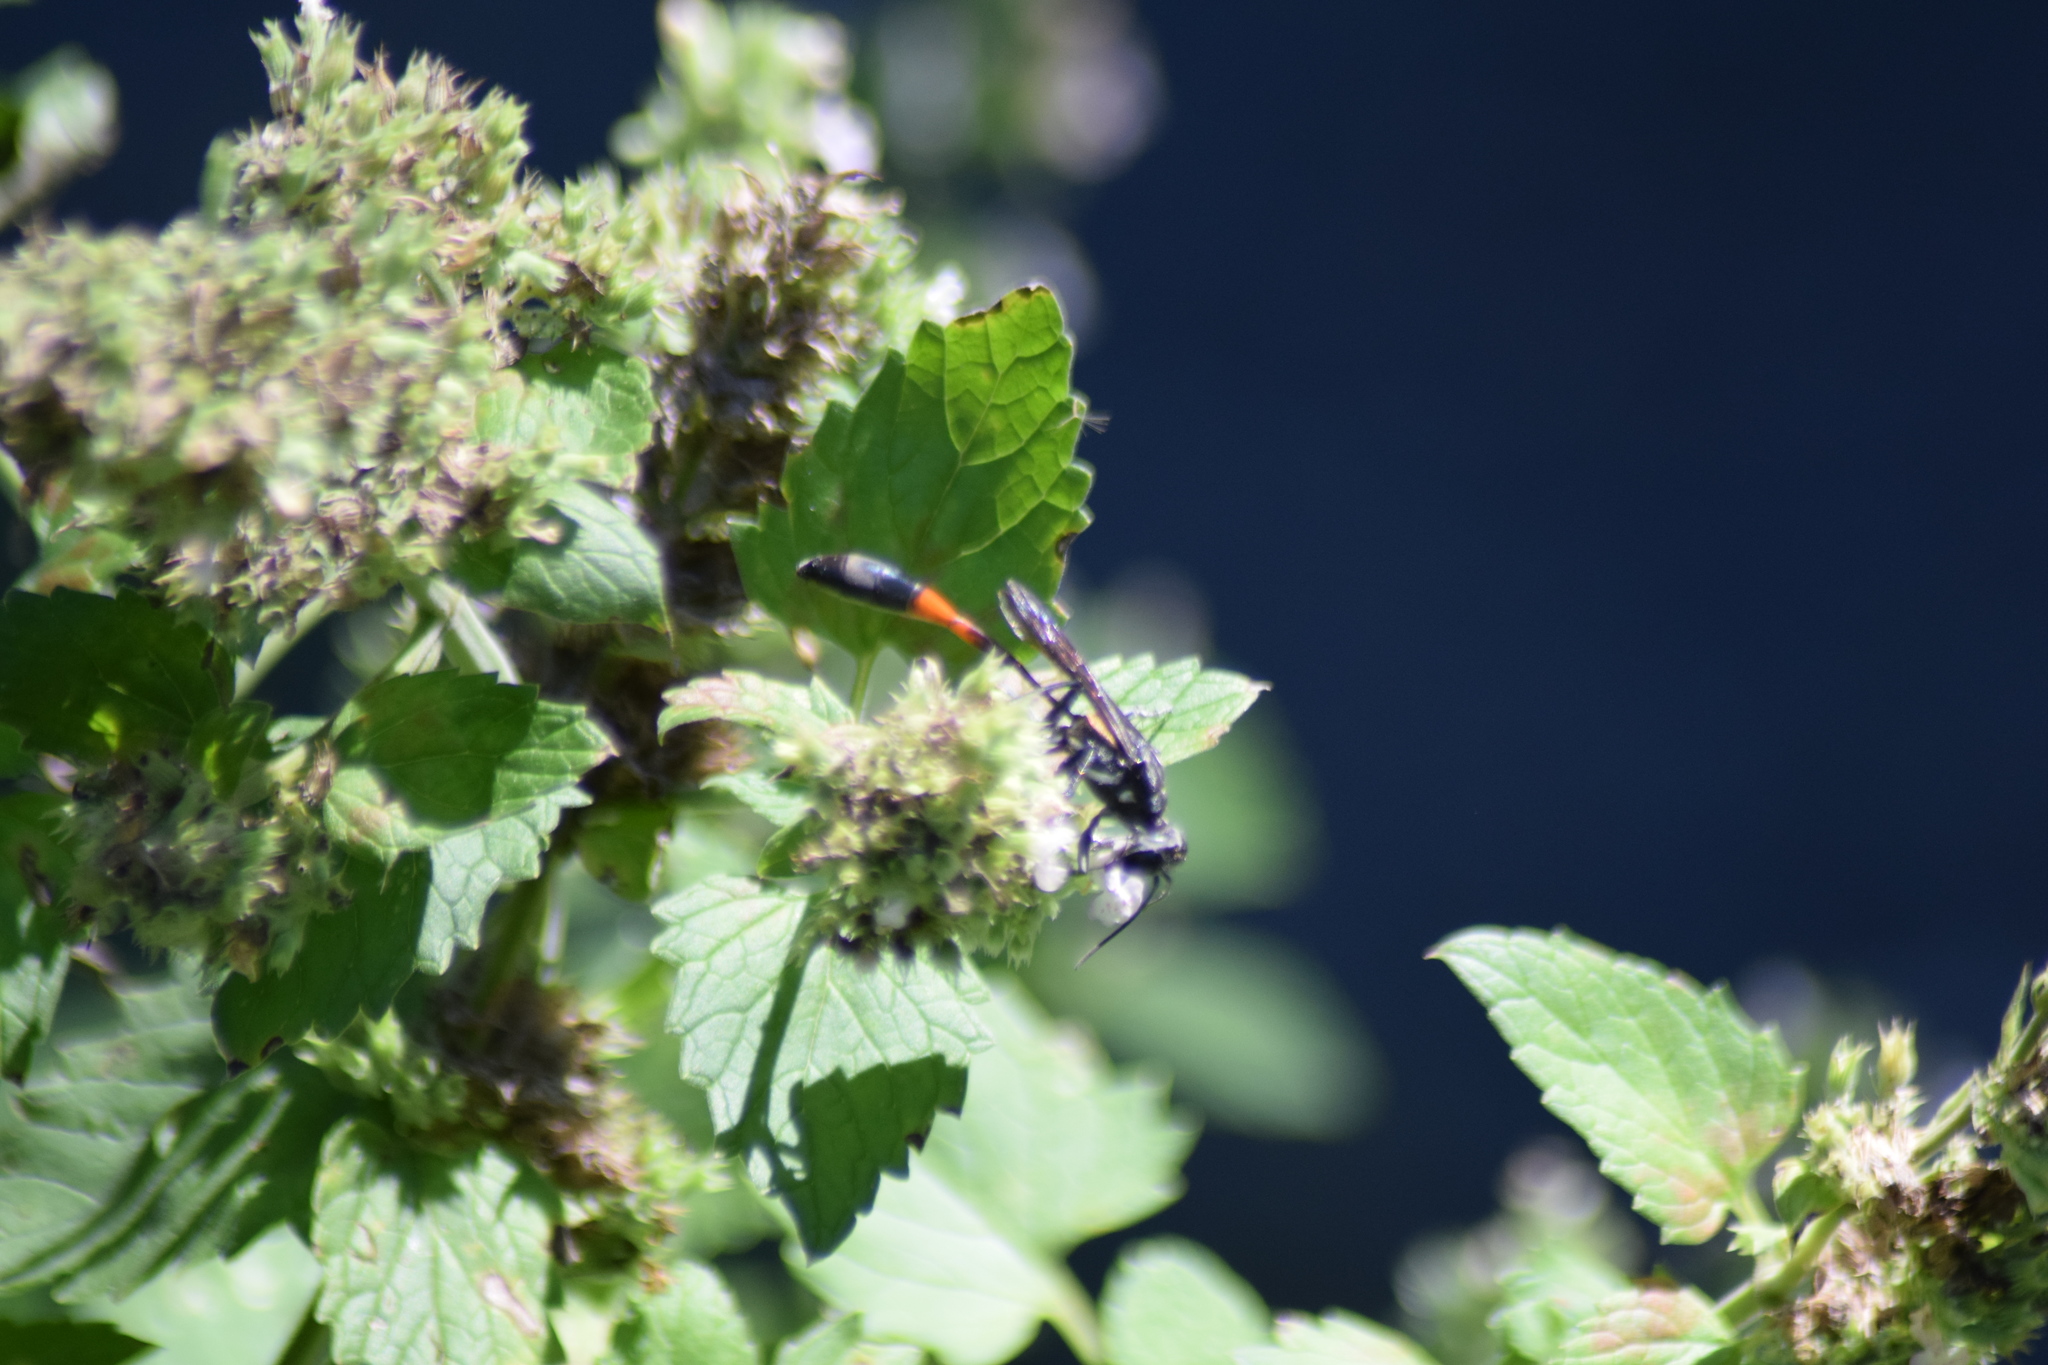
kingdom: Animalia
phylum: Arthropoda
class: Insecta
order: Hymenoptera
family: Sphecidae
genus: Ammophila
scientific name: Ammophila procera
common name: Common thread-waisted wasp
